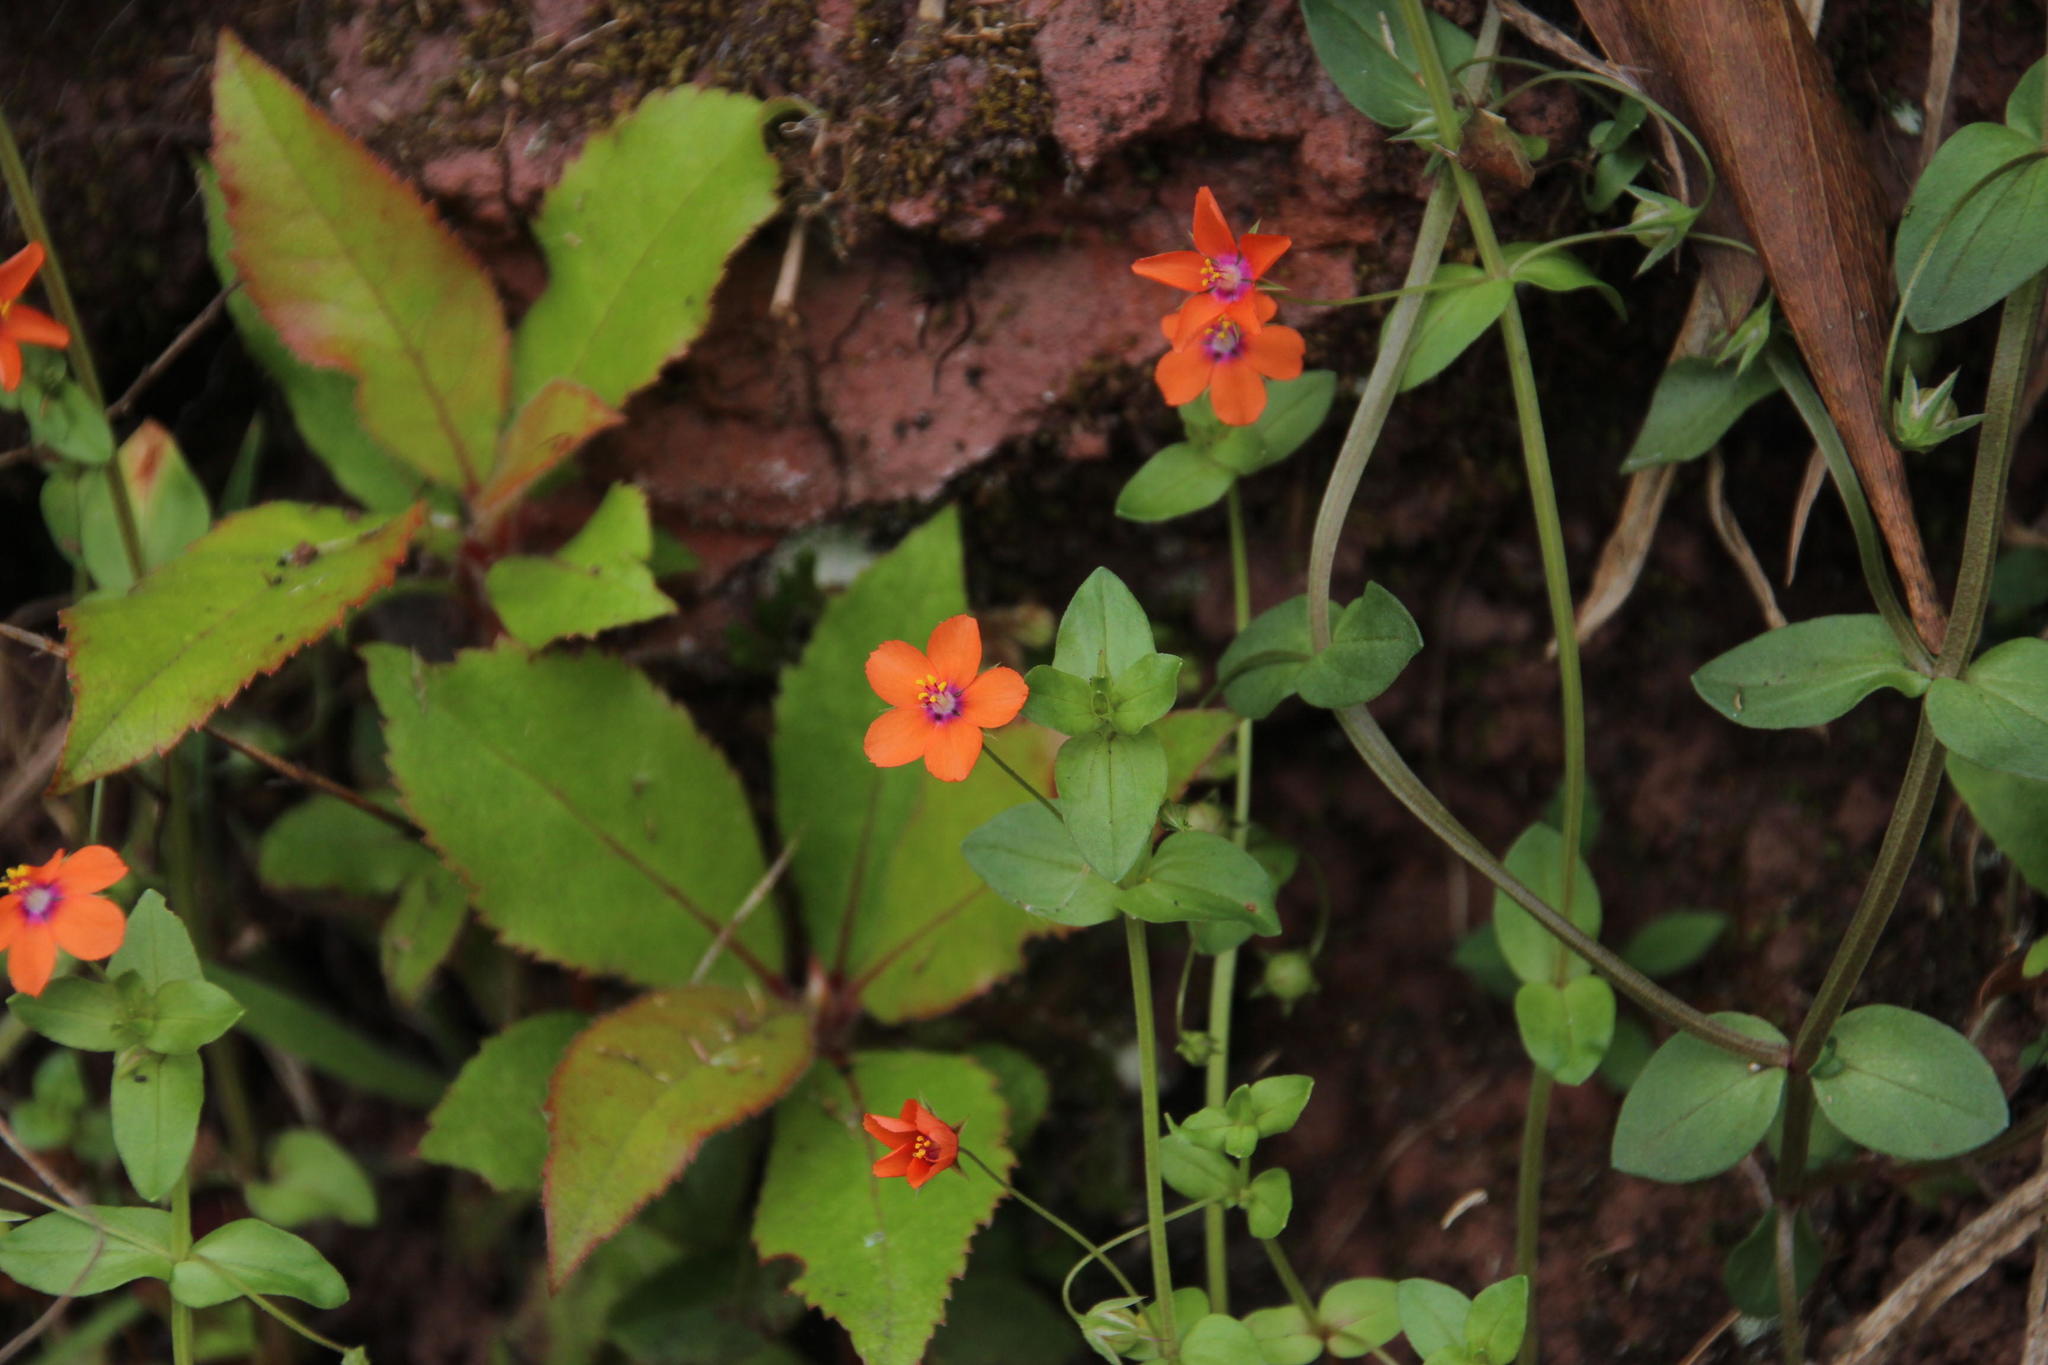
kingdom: Plantae
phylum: Tracheophyta
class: Magnoliopsida
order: Ericales
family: Primulaceae
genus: Lysimachia
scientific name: Lysimachia arvensis
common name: Scarlet pimpernel
